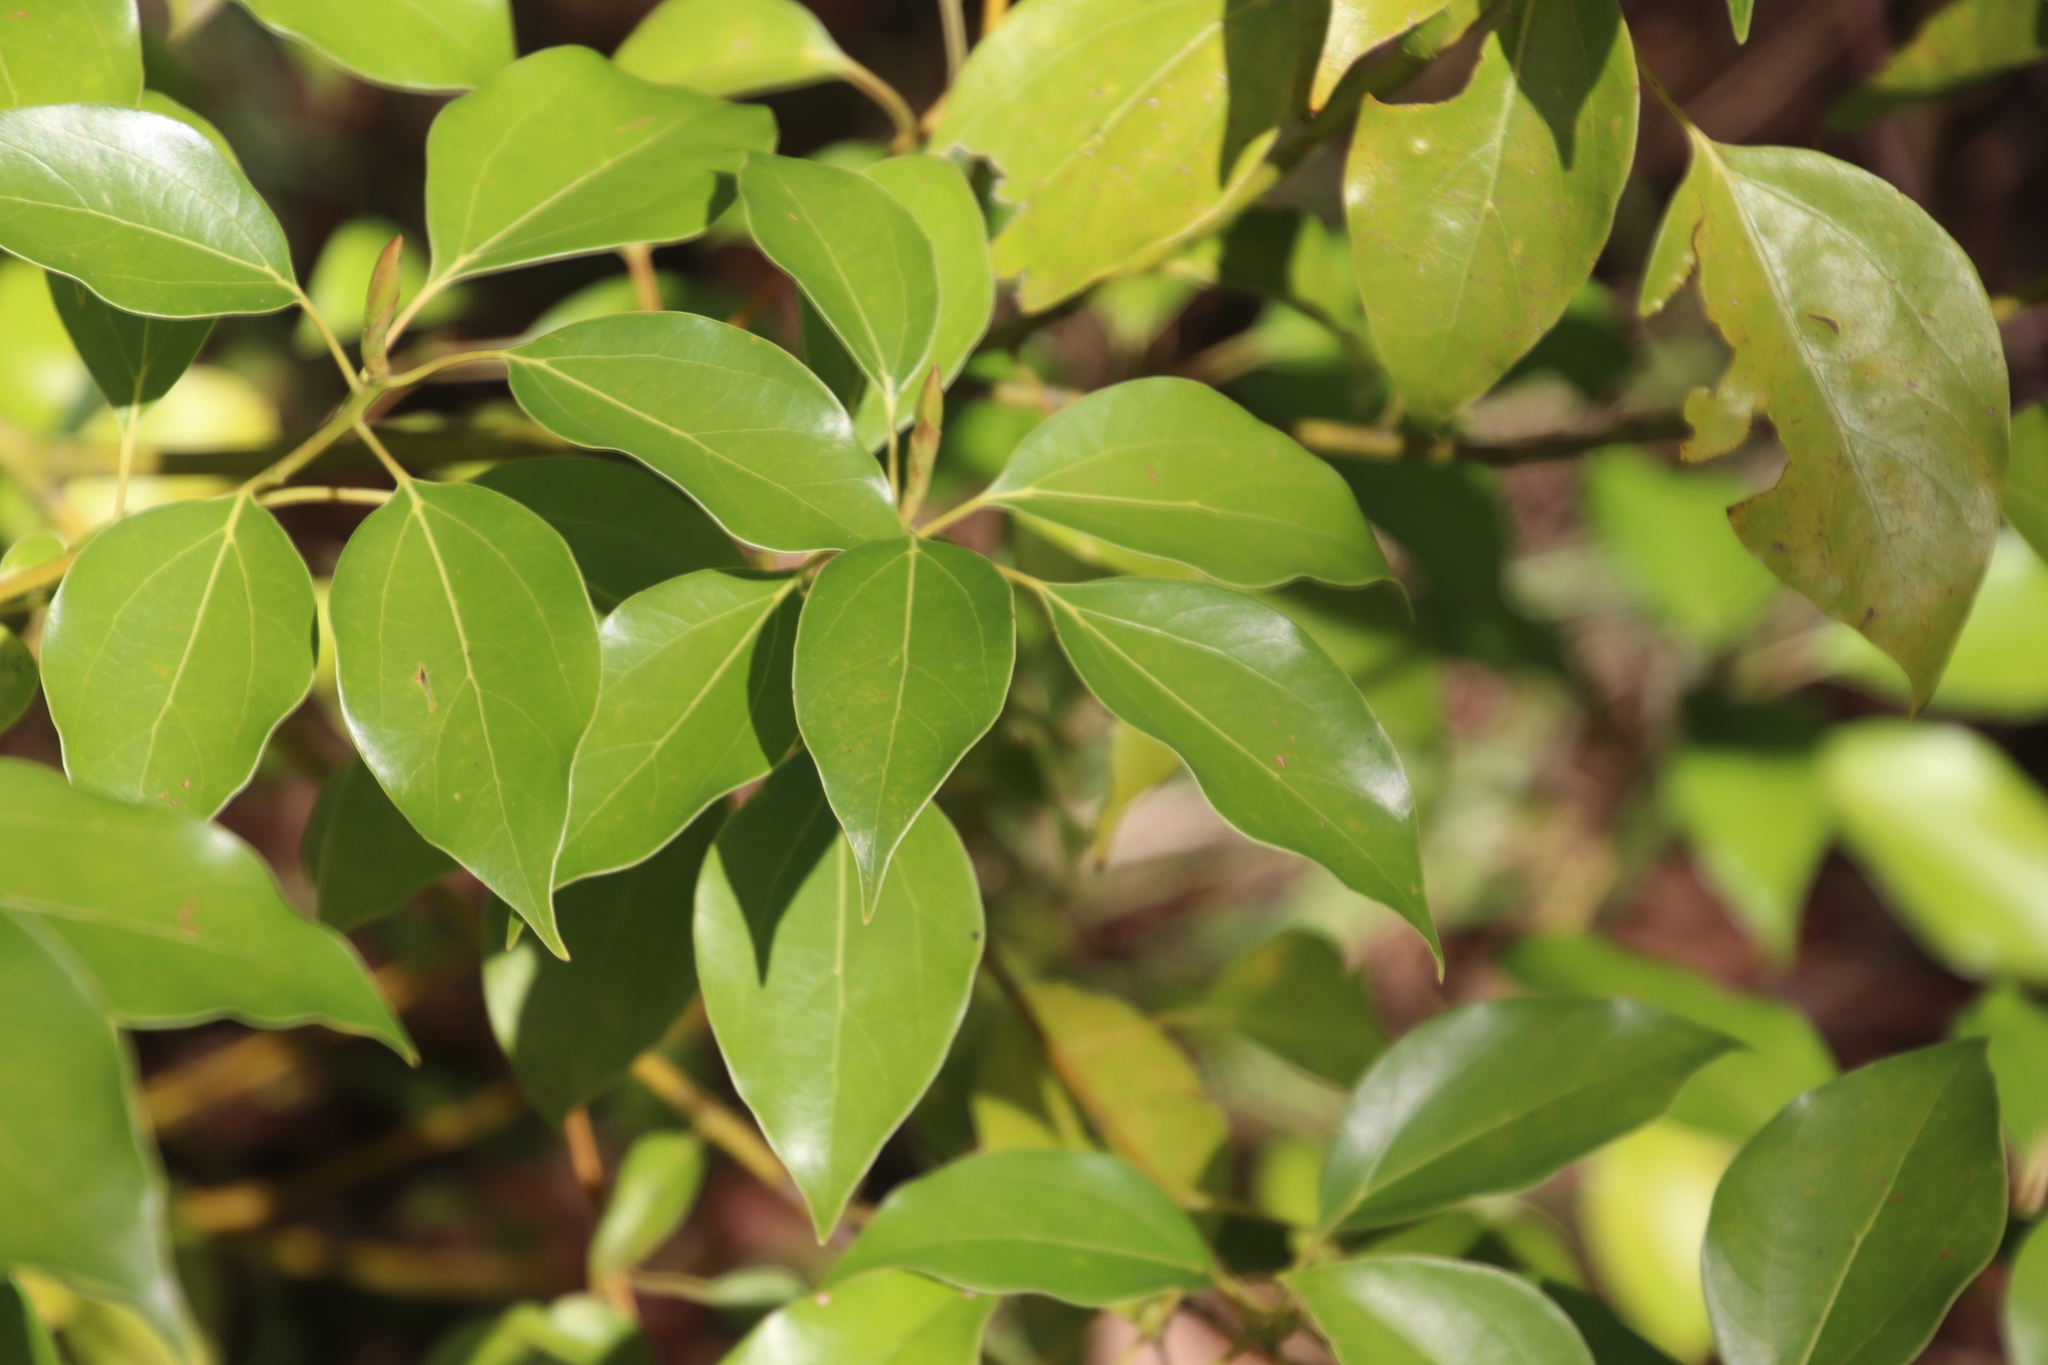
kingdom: Plantae
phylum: Tracheophyta
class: Magnoliopsida
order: Laurales
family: Lauraceae
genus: Cinnamomum
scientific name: Cinnamomum camphora
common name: Camphortree
